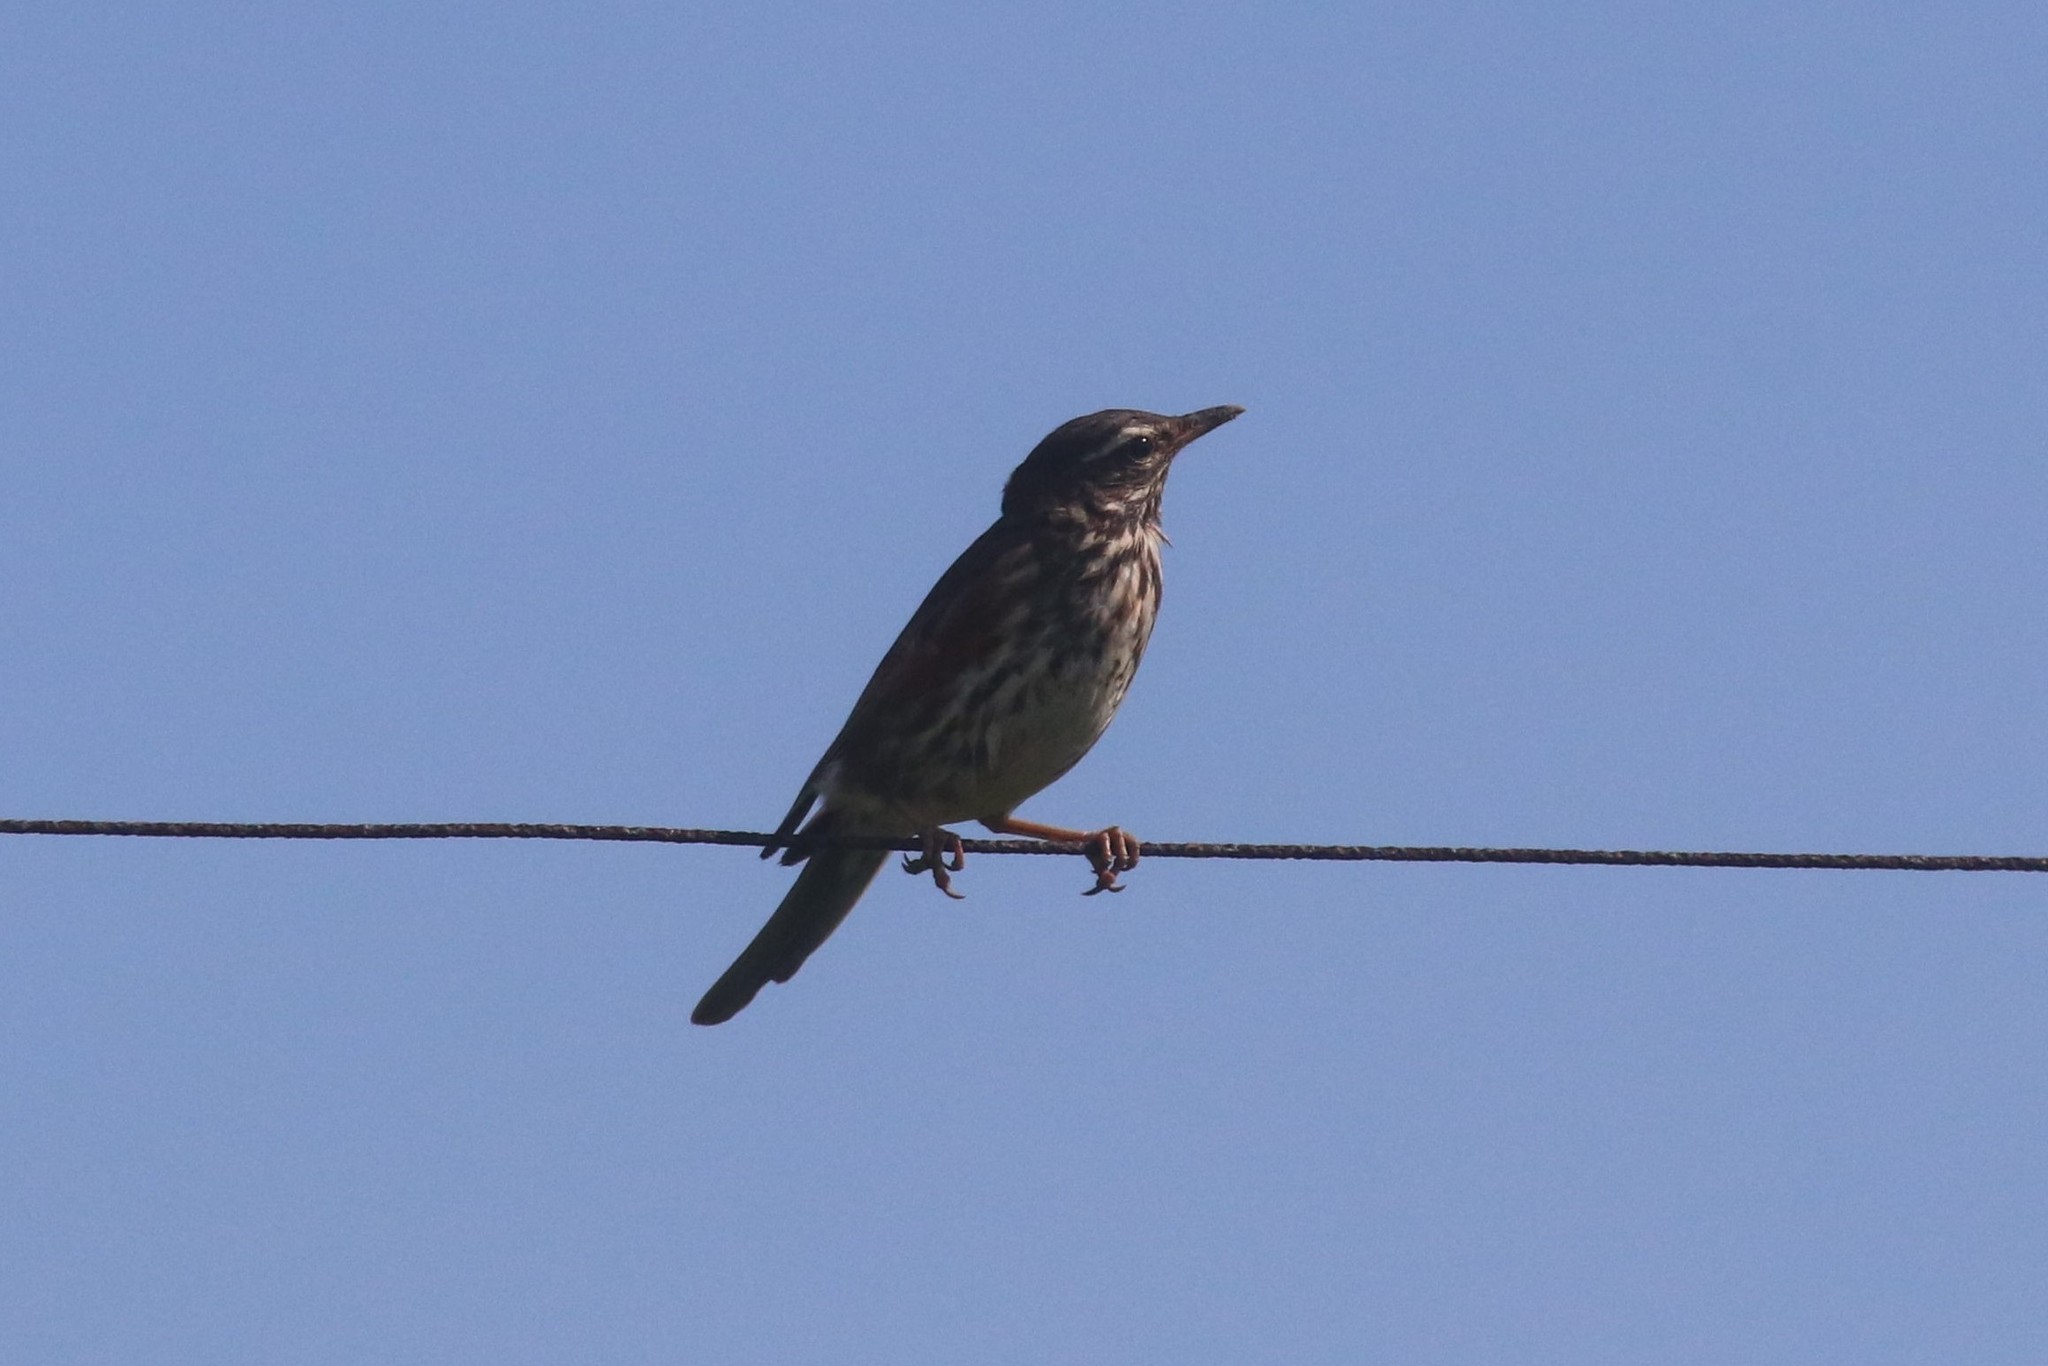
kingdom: Animalia
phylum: Chordata
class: Aves
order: Passeriformes
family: Turdidae
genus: Turdus
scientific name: Turdus iliacus
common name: Redwing
